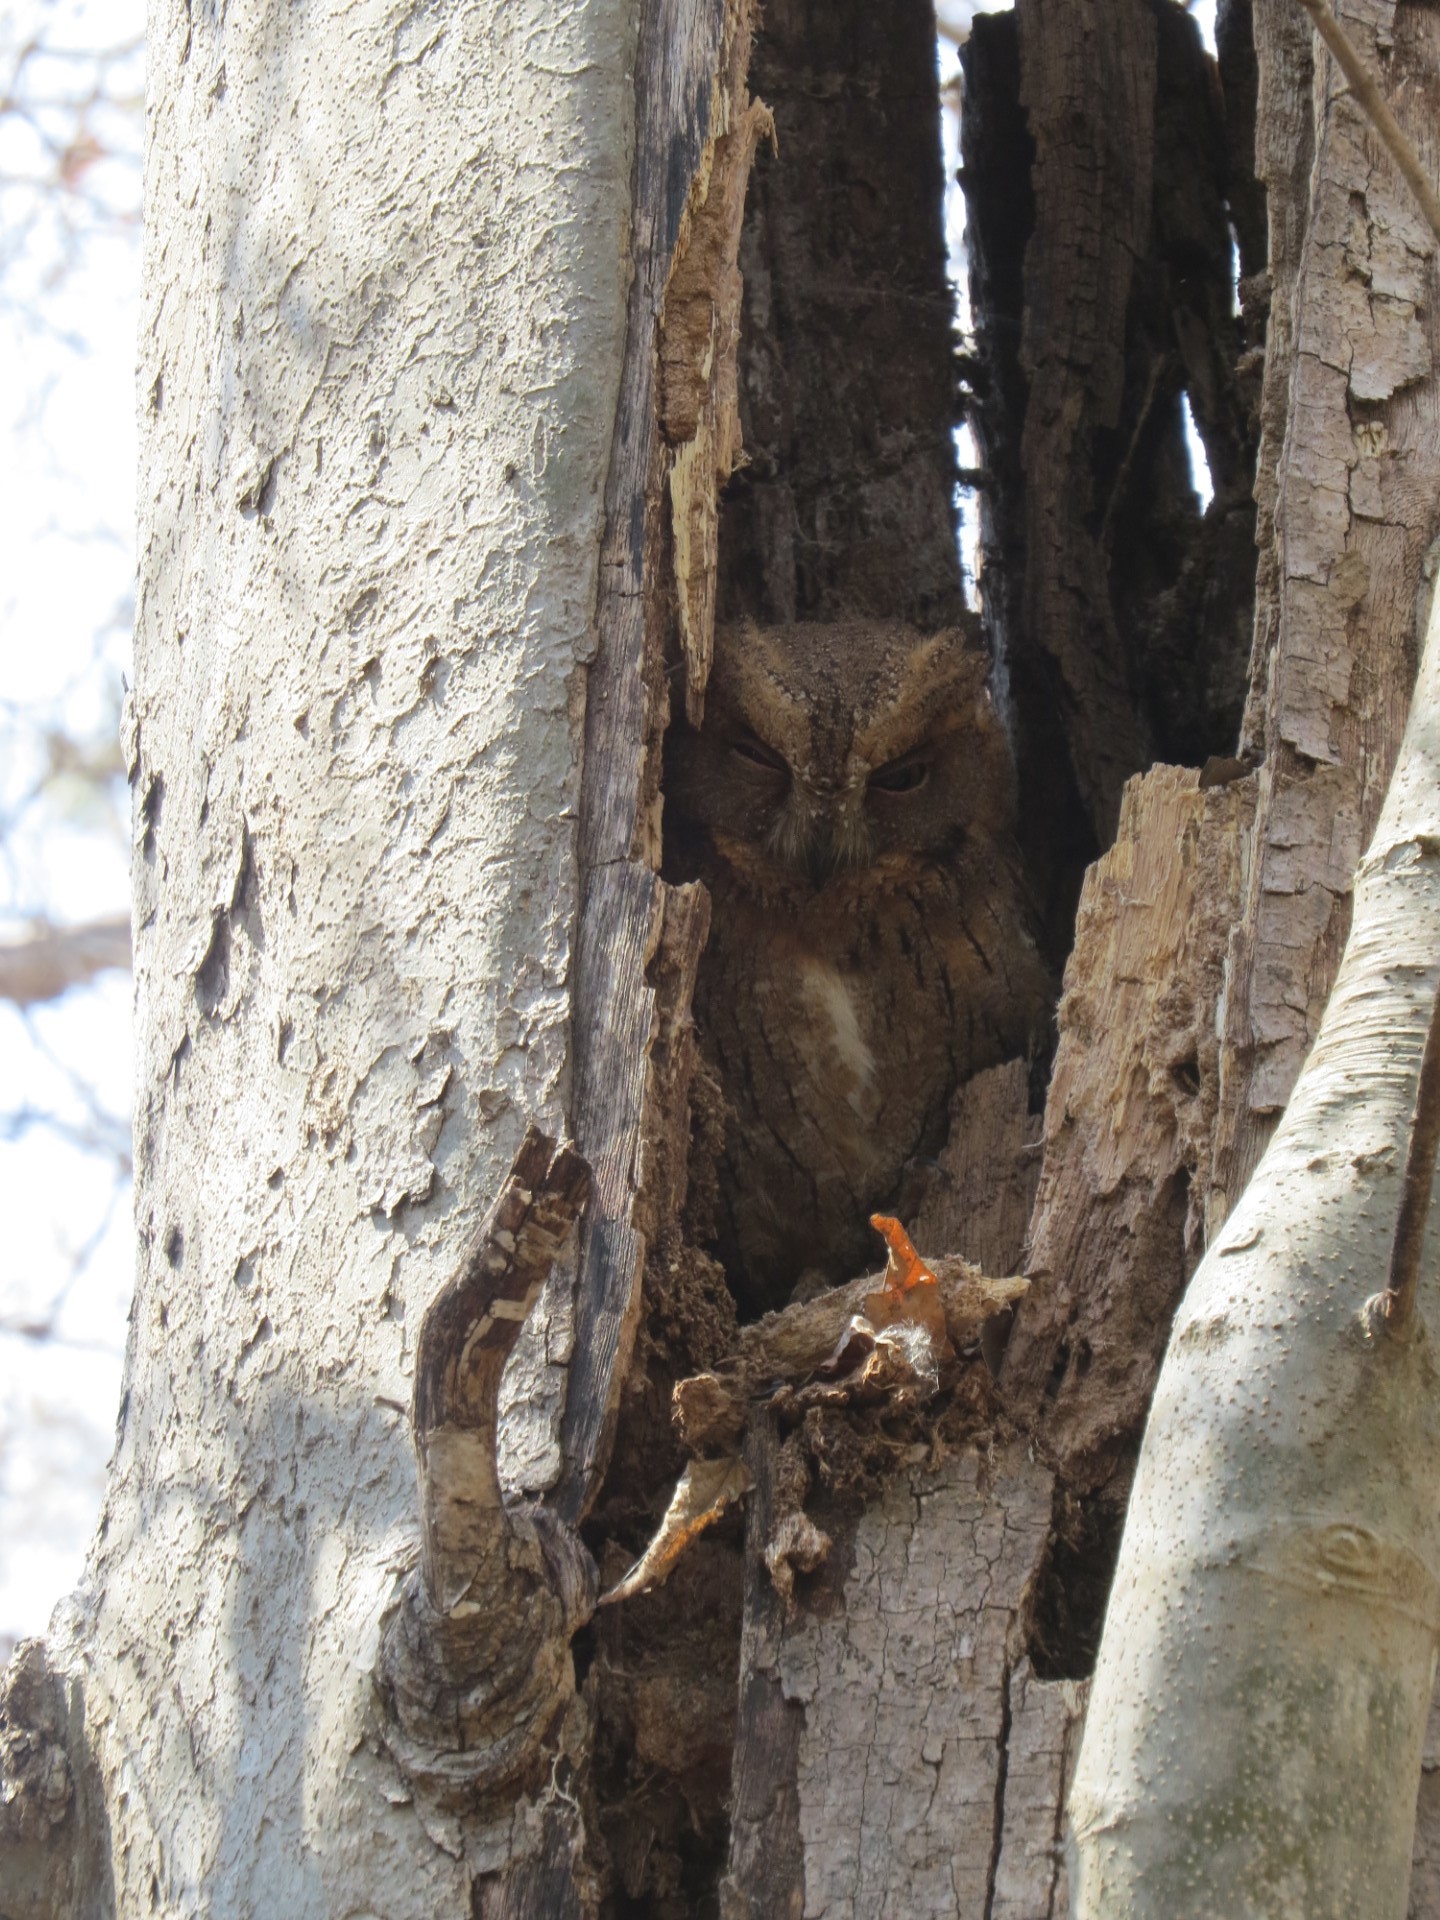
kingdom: Animalia
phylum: Chordata
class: Aves
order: Strigiformes
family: Strigidae
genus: Otus
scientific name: Otus rutilus
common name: Rainforest scops owl
